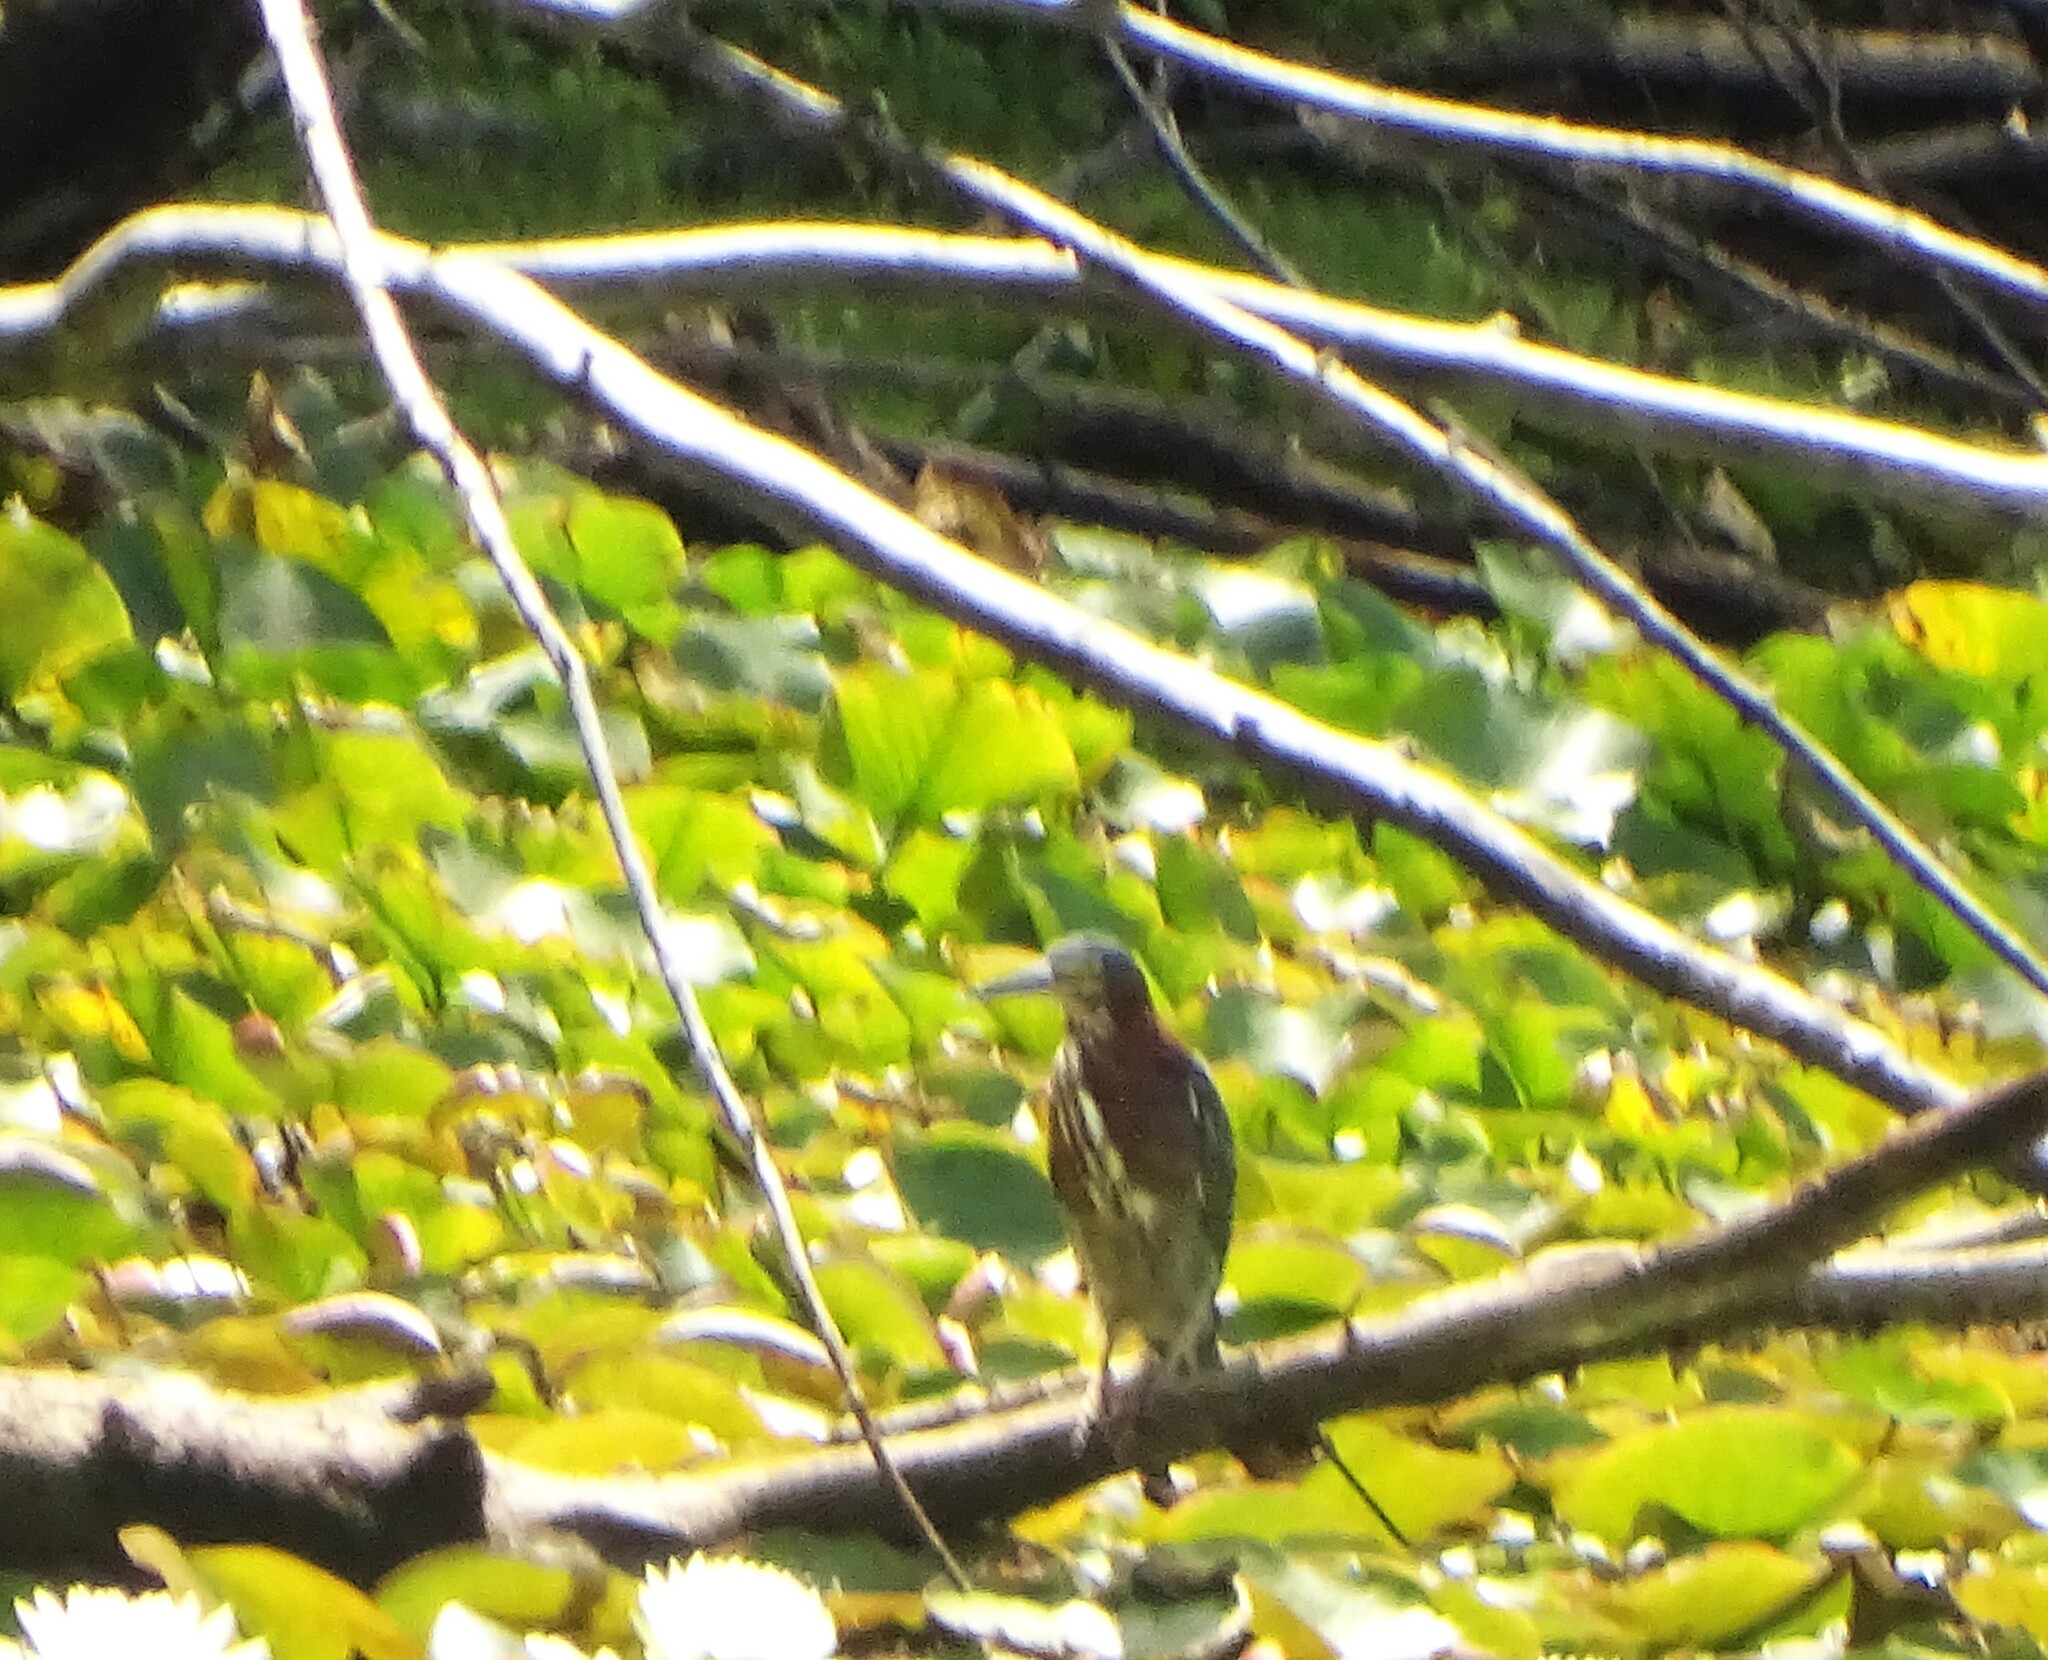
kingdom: Animalia
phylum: Chordata
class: Aves
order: Pelecaniformes
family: Ardeidae
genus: Butorides
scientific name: Butorides virescens
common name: Green heron
